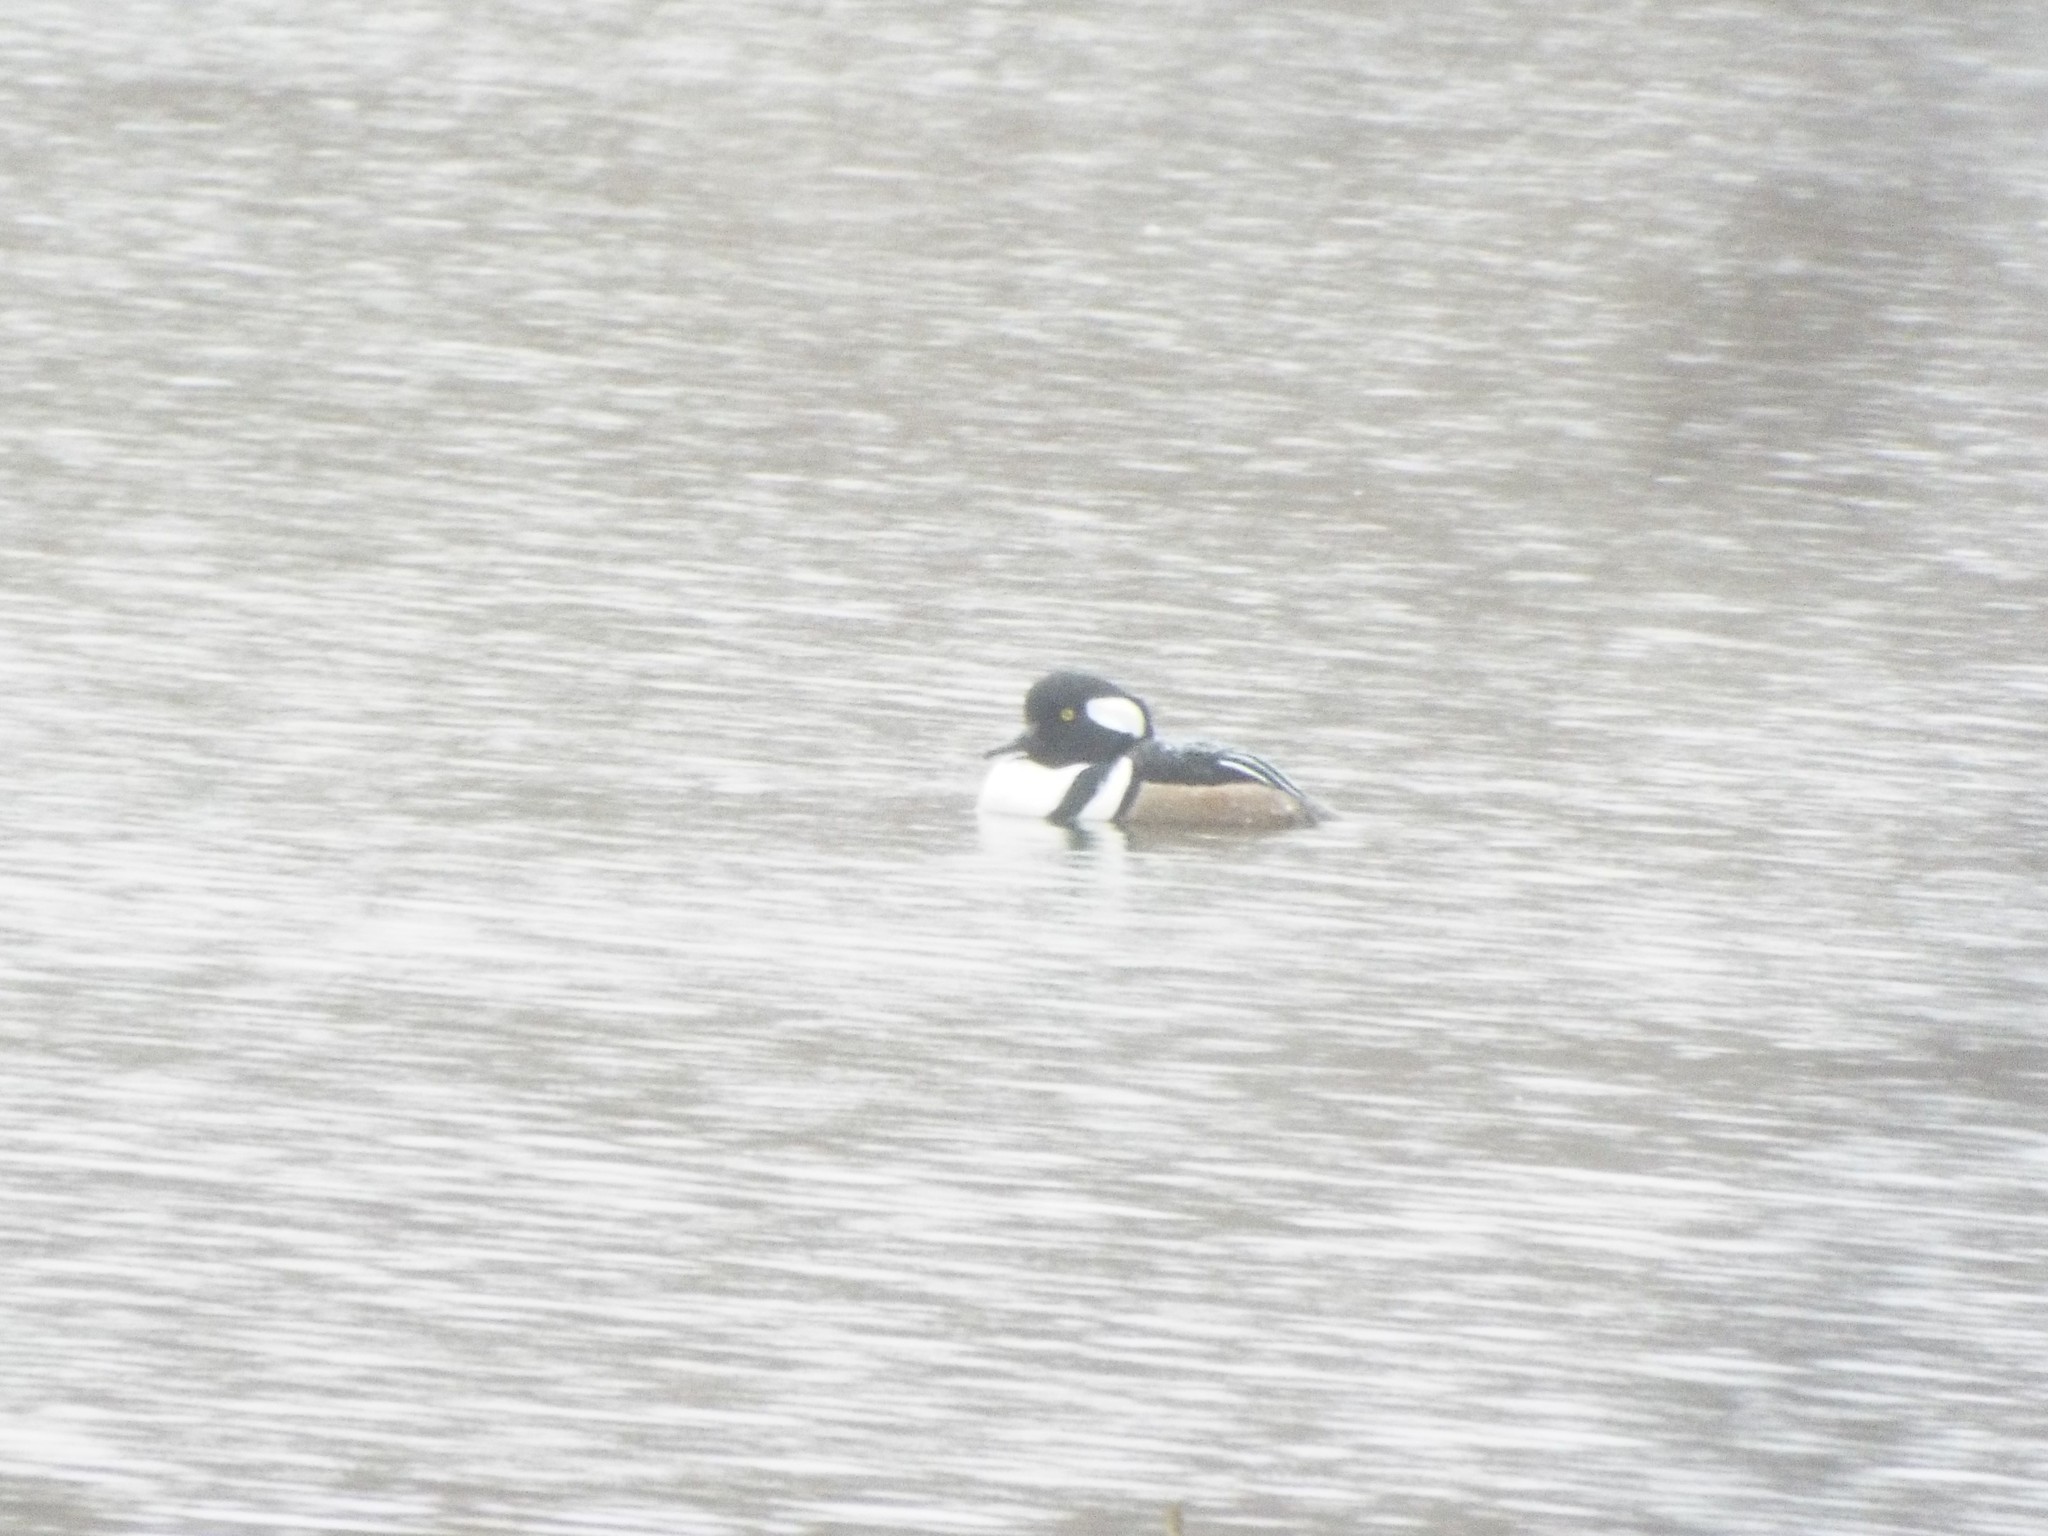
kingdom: Animalia
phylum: Chordata
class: Aves
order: Anseriformes
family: Anatidae
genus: Lophodytes
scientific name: Lophodytes cucullatus
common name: Hooded merganser
